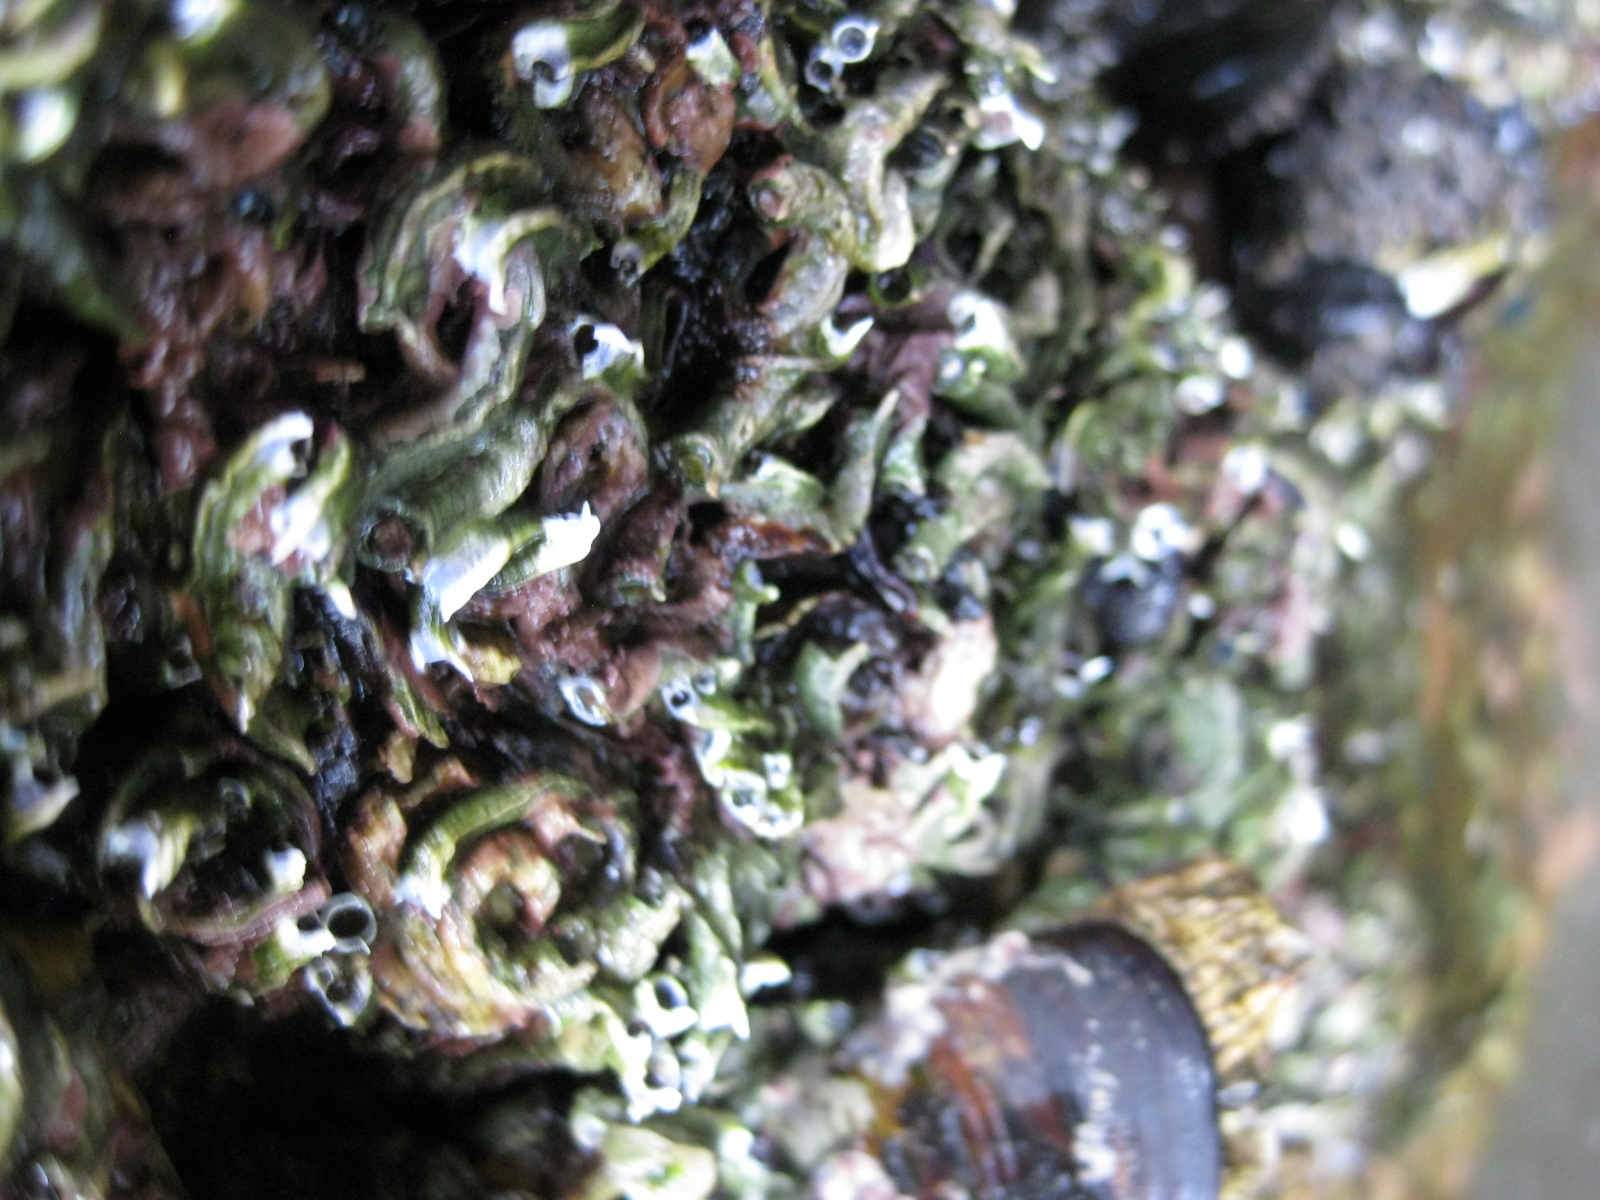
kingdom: Animalia
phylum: Annelida
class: Polychaeta
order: Sabellida
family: Serpulidae
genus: Spirobranchus
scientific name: Spirobranchus cariniferus
